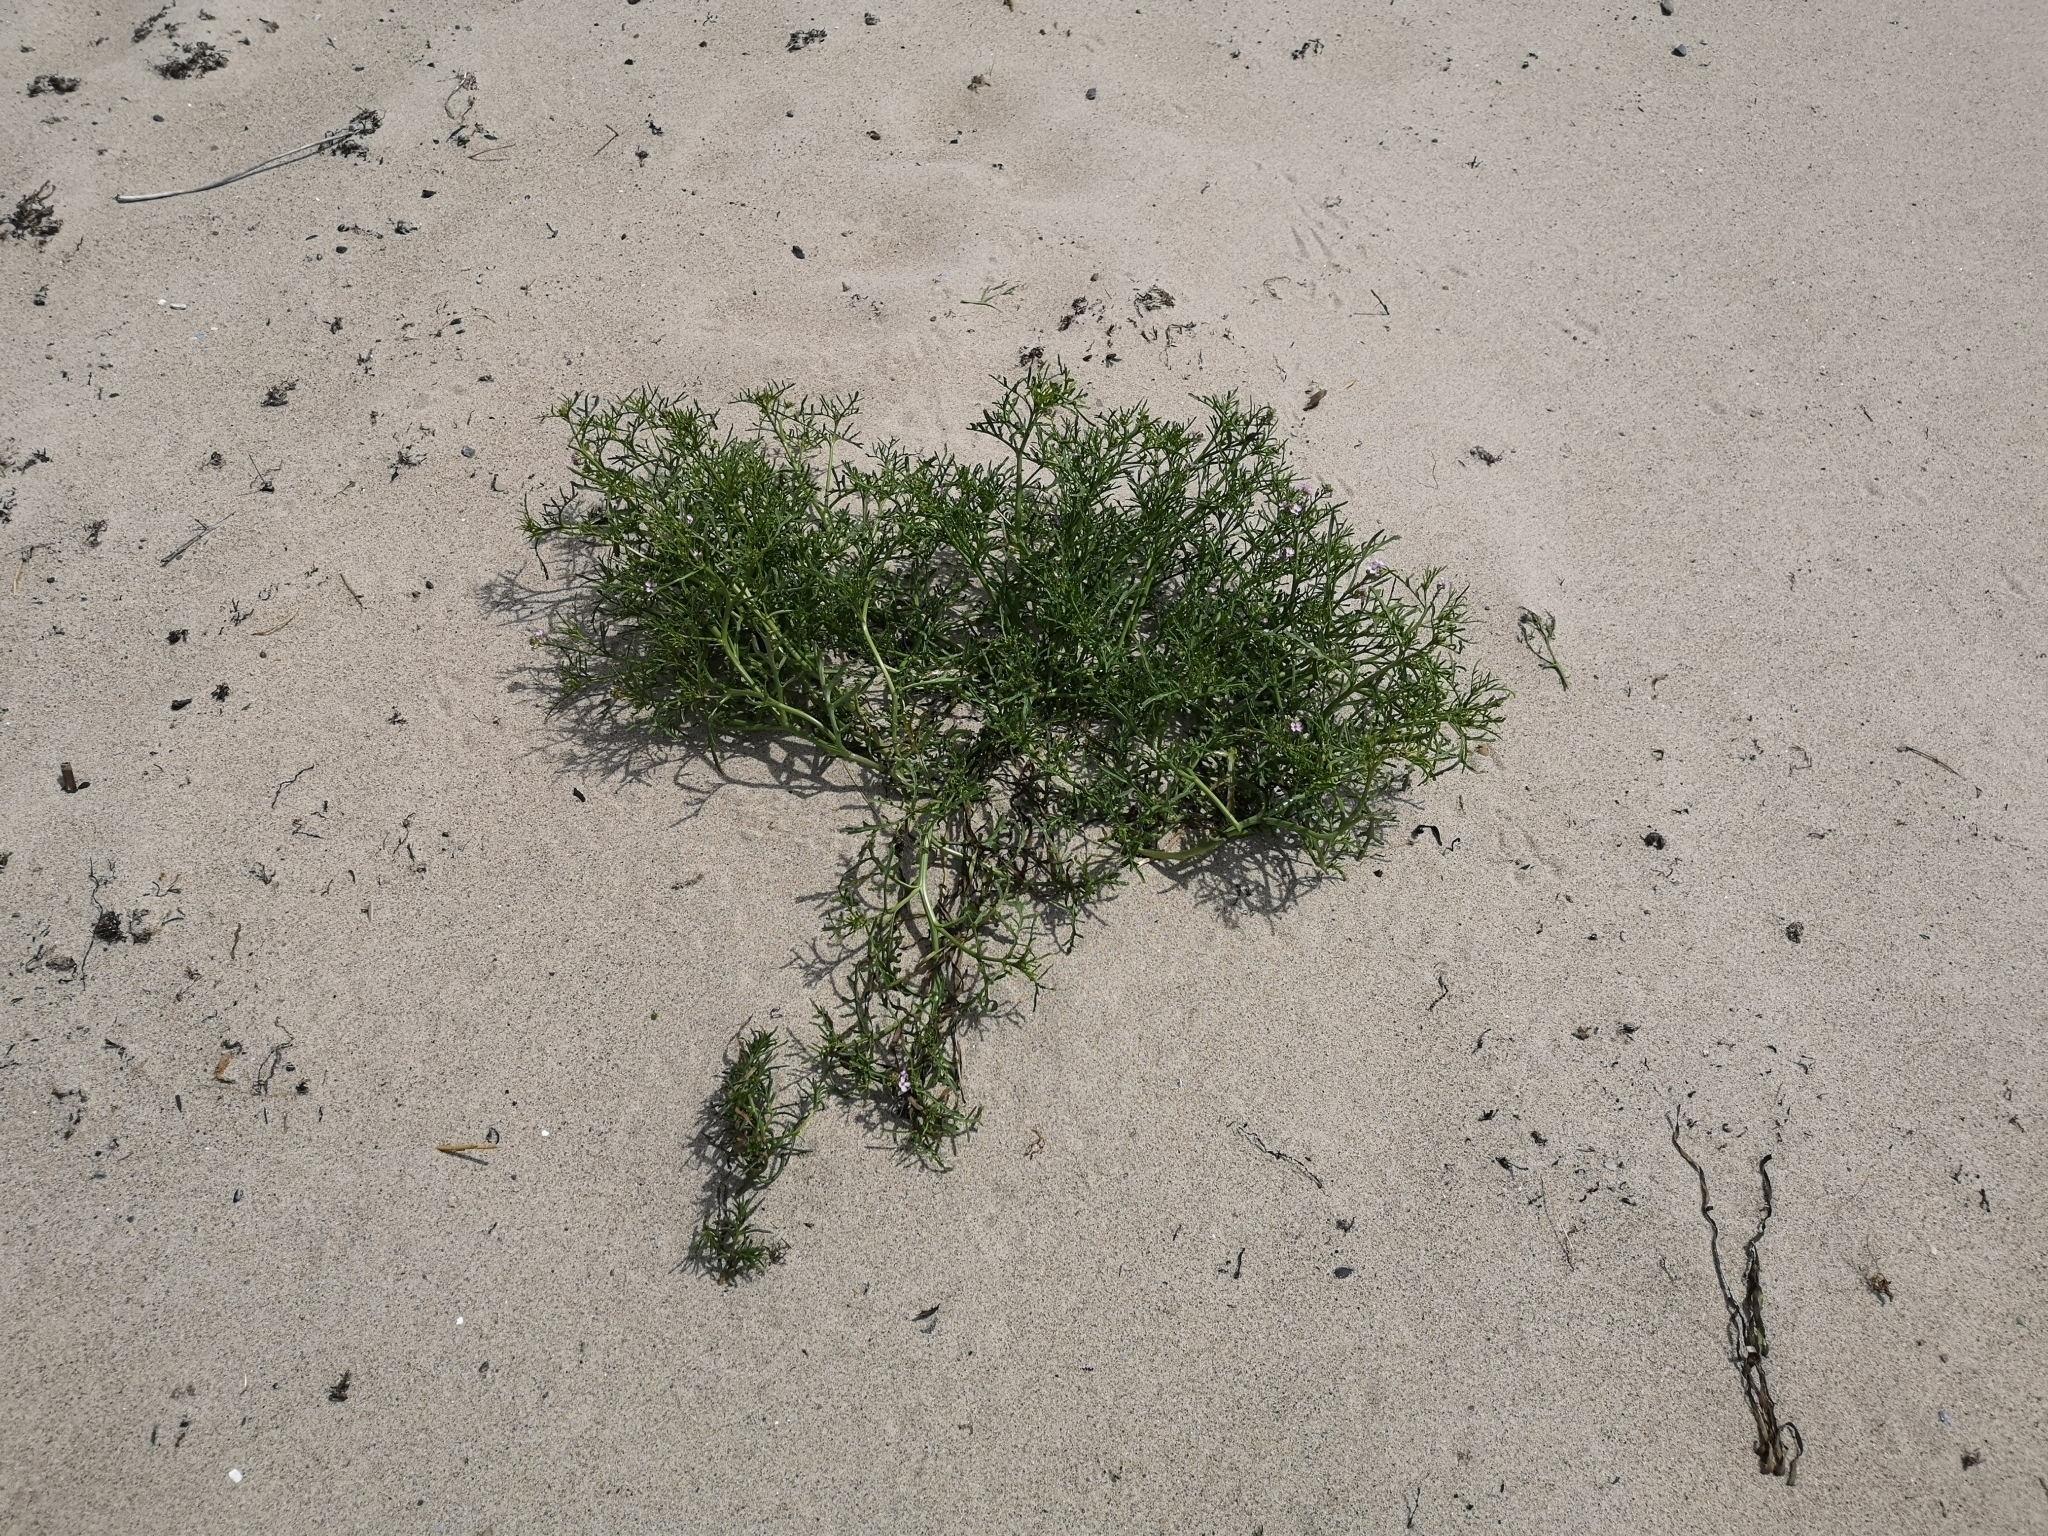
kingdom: Plantae
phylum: Tracheophyta
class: Magnoliopsida
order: Brassicales
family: Brassicaceae
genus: Cakile
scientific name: Cakile maritima
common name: Sea rocket
